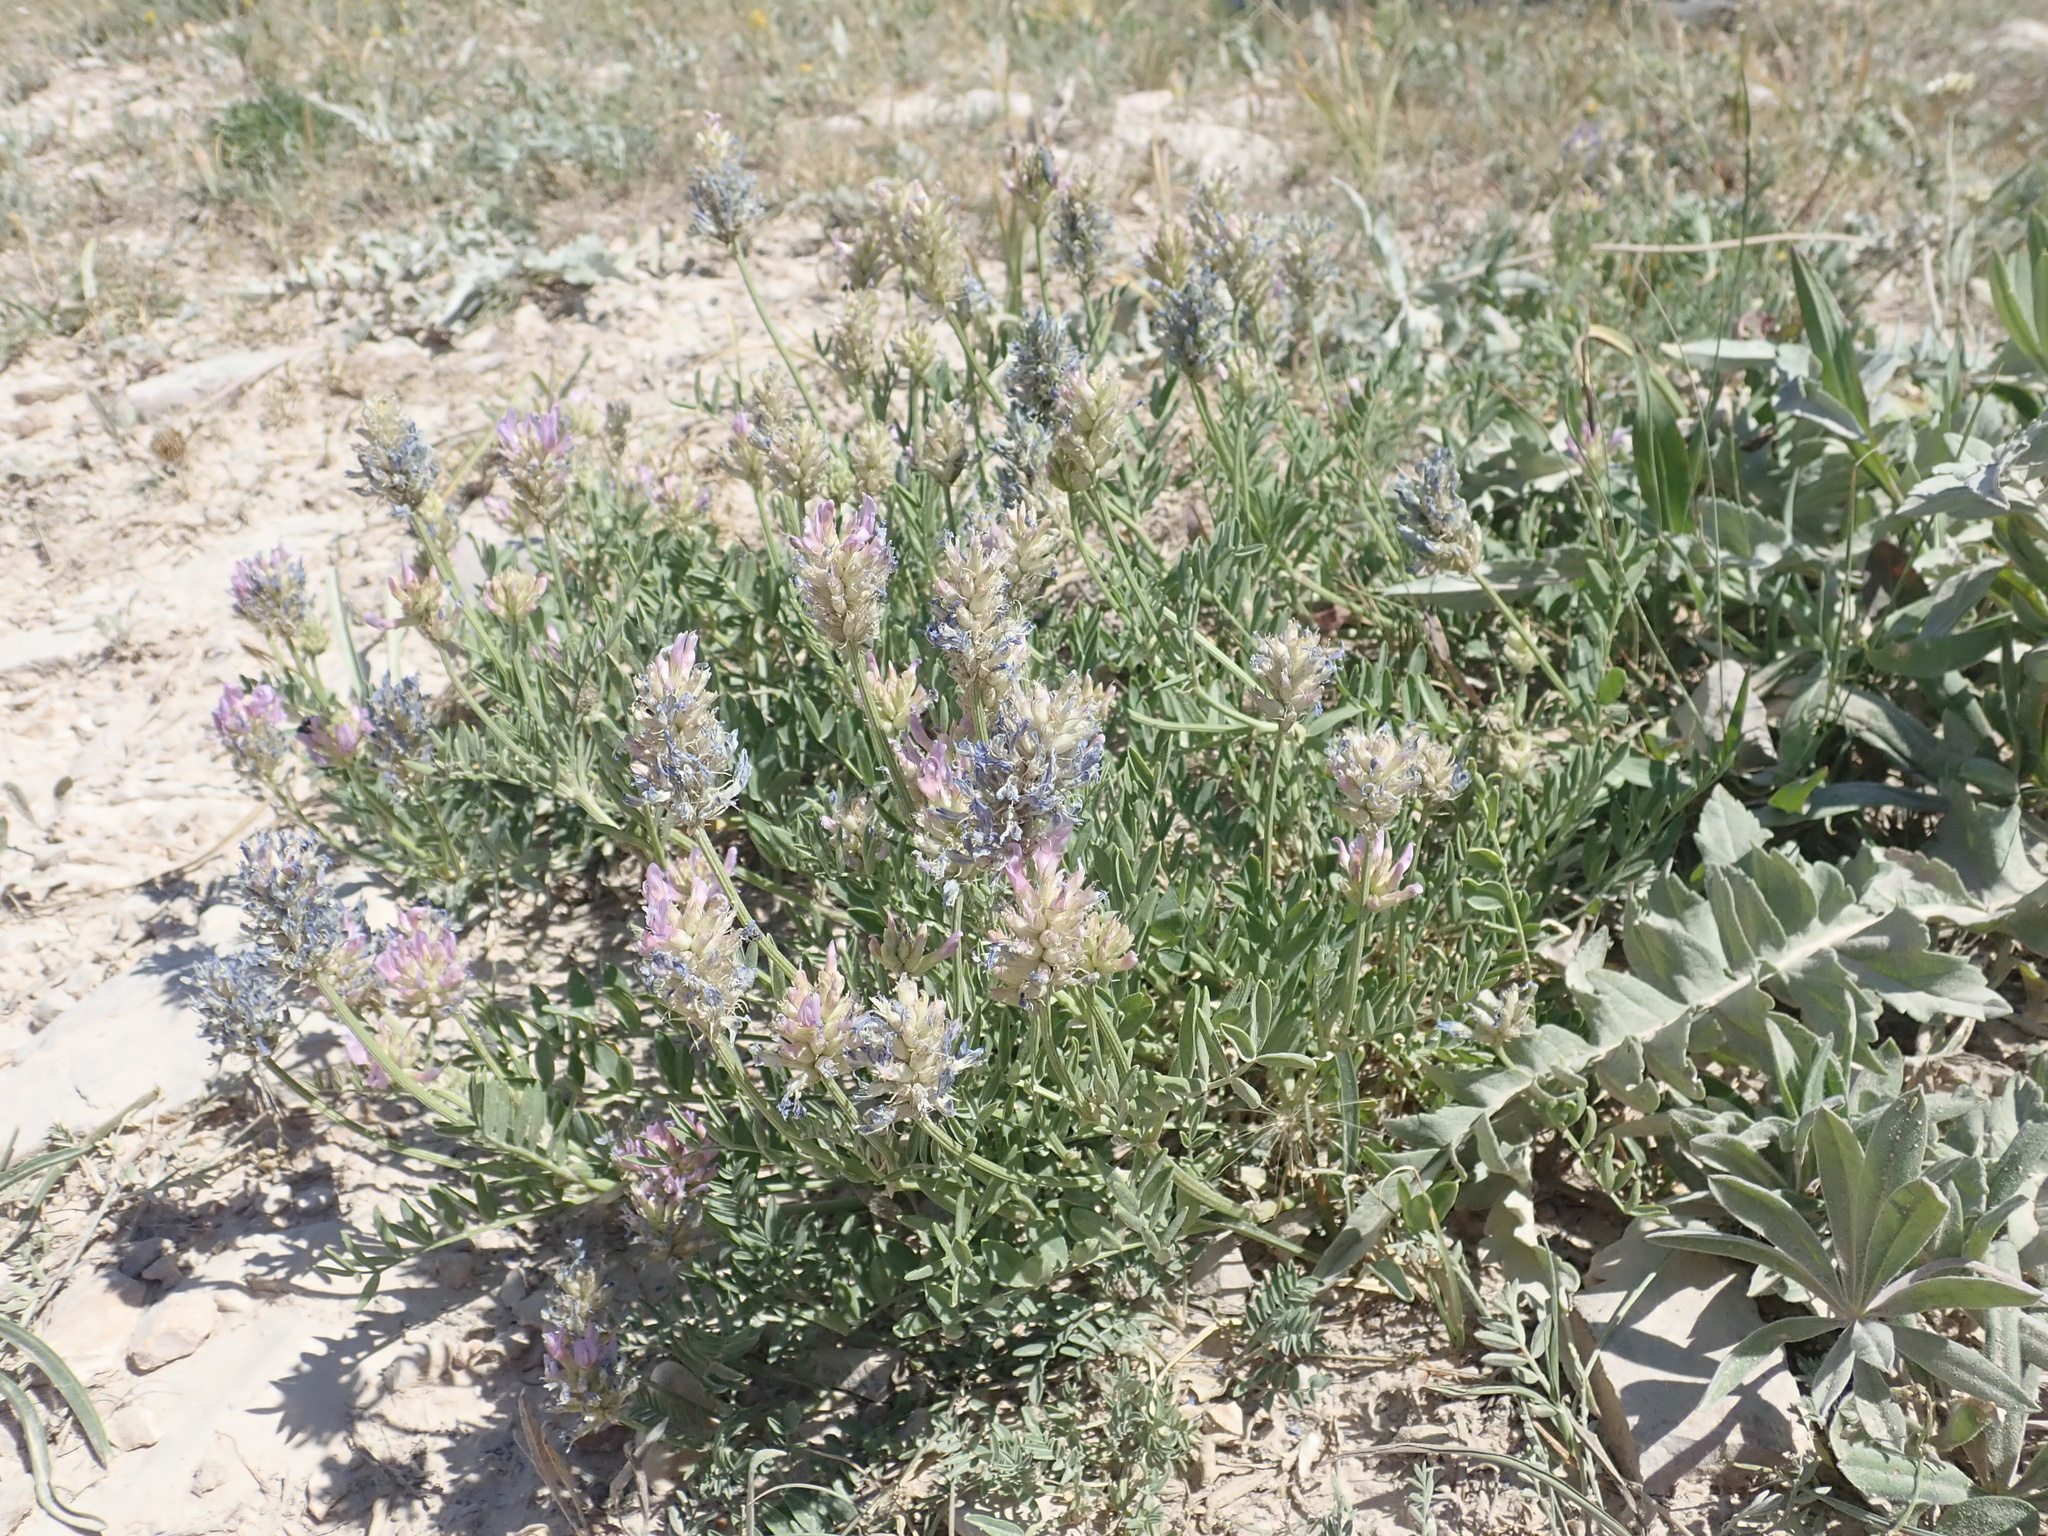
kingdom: Plantae
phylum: Tracheophyta
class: Magnoliopsida
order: Fabales
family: Fabaceae
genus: Astragalus
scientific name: Astragalus laxmannii
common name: Laxmann's milk-vetch
